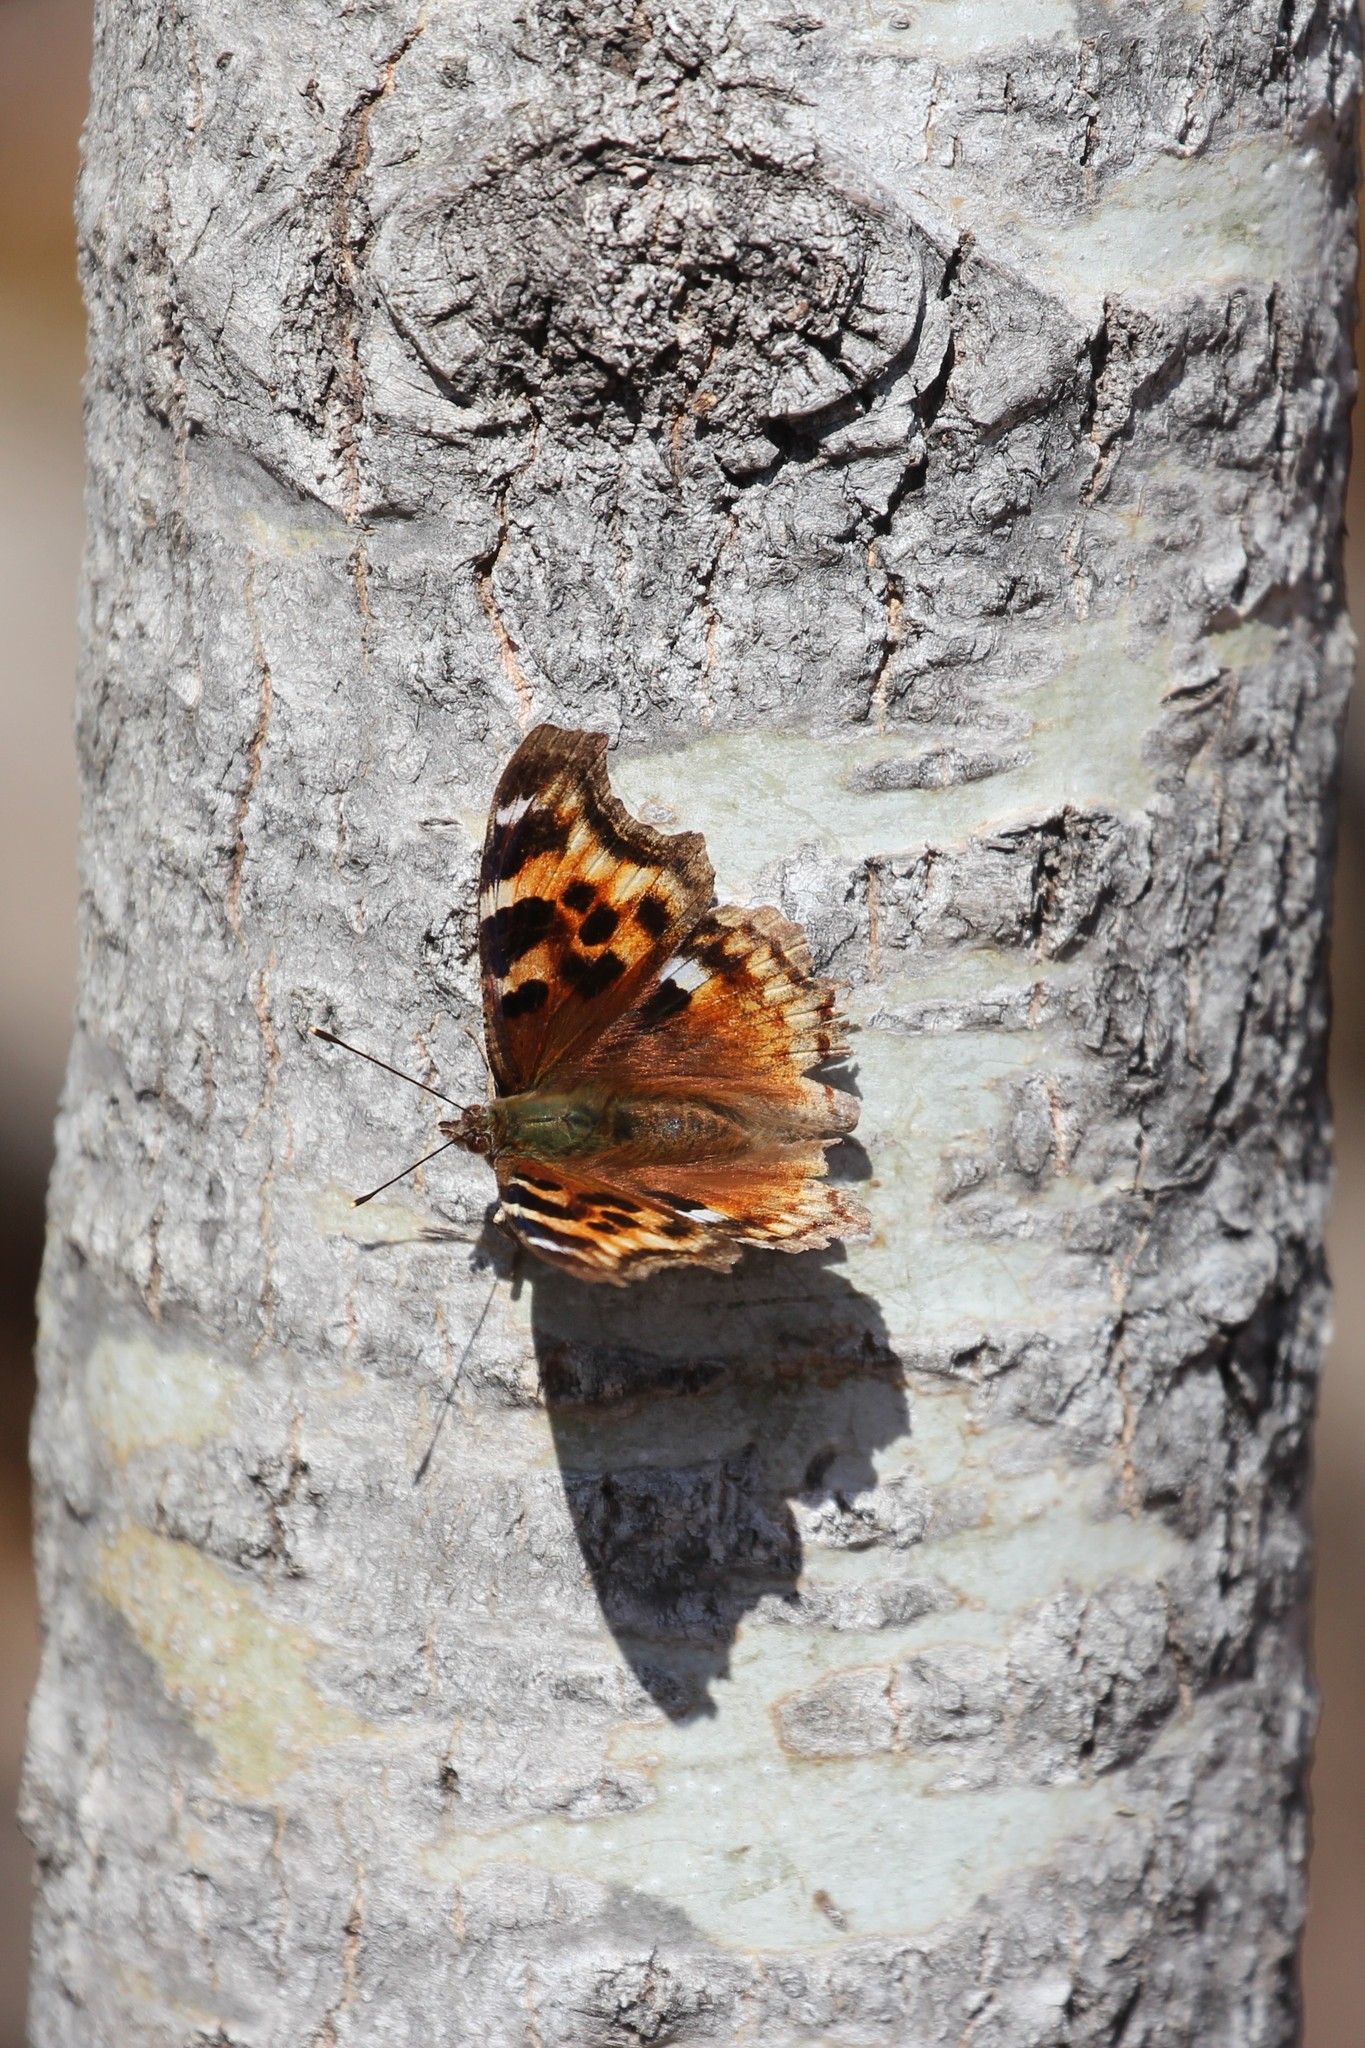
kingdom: Animalia
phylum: Arthropoda
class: Insecta
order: Lepidoptera
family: Nymphalidae
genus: Polygonia
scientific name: Polygonia vaualbum
